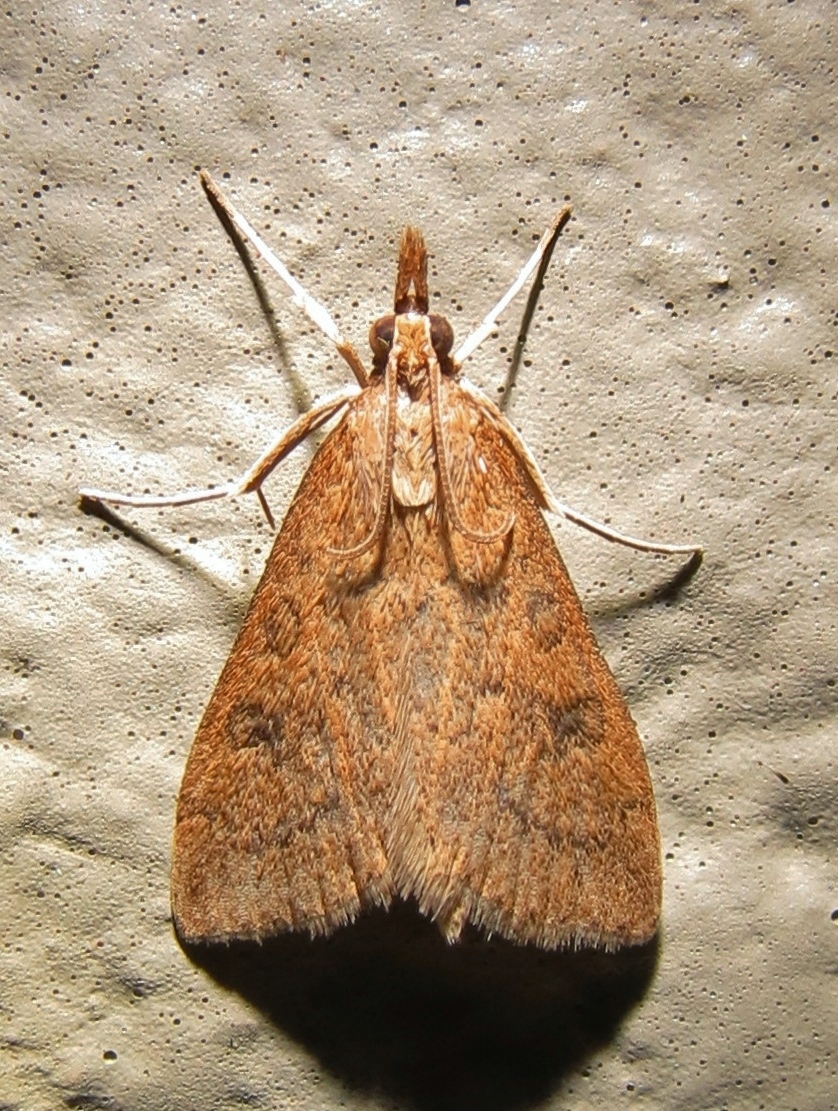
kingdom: Animalia
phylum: Arthropoda
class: Insecta
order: Lepidoptera
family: Crambidae
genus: Udea
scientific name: Udea rubigalis
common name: Celery leaftier moth
